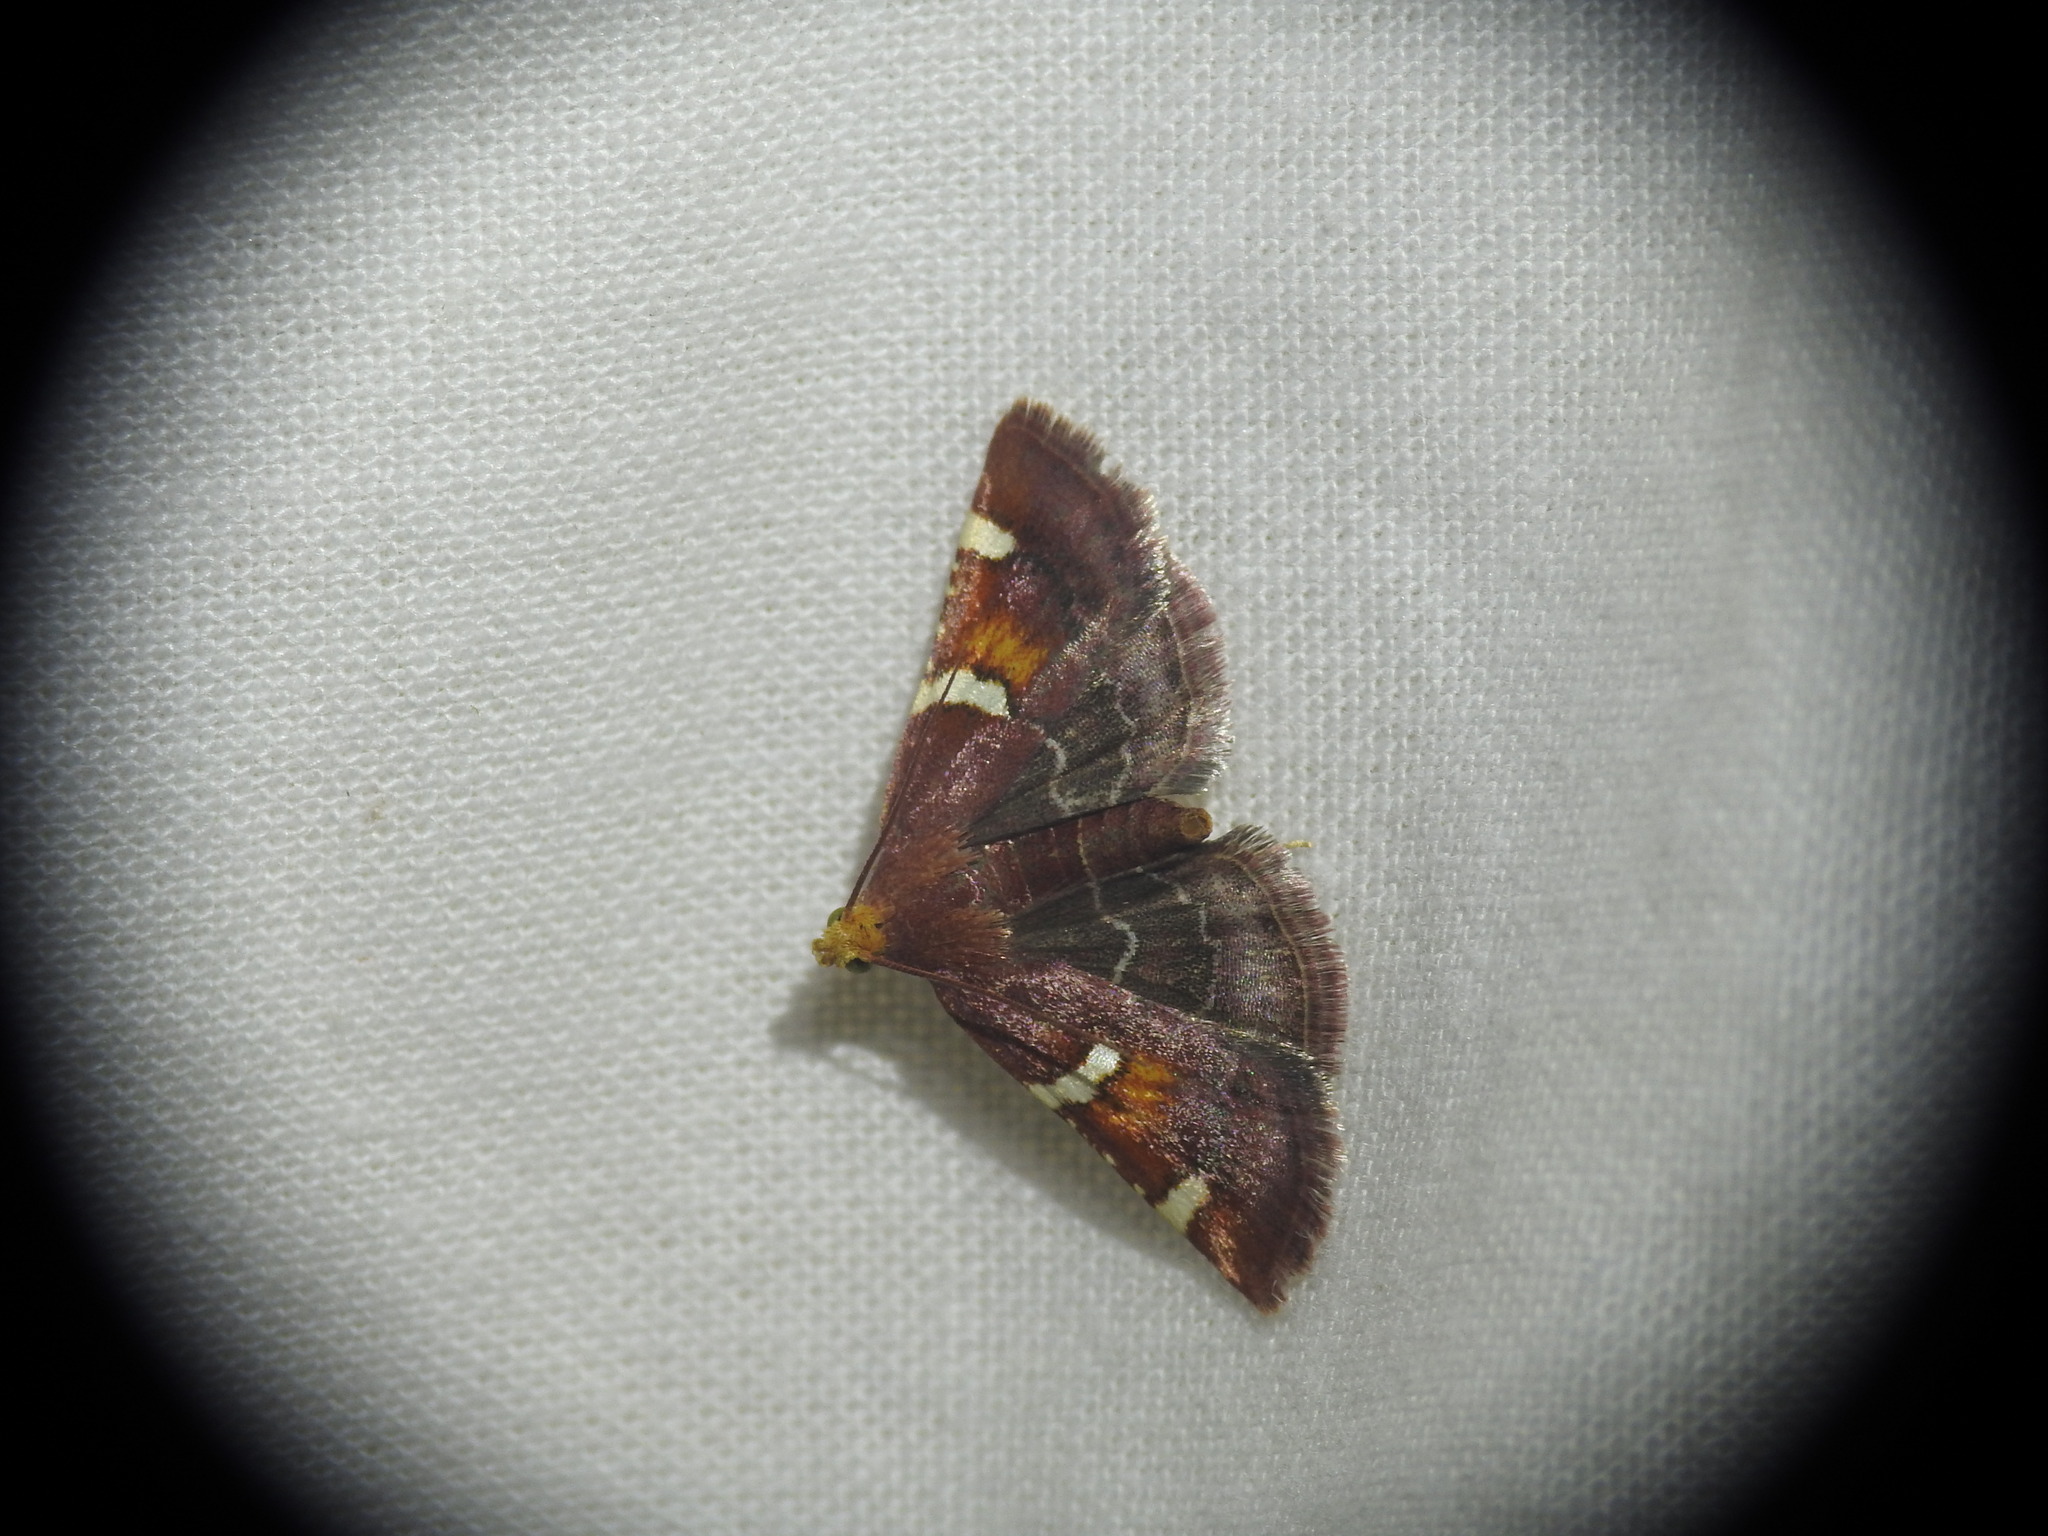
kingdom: Animalia
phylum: Arthropoda
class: Insecta
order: Lepidoptera
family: Pyralidae
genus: Pyralis
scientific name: Pyralis regalis
